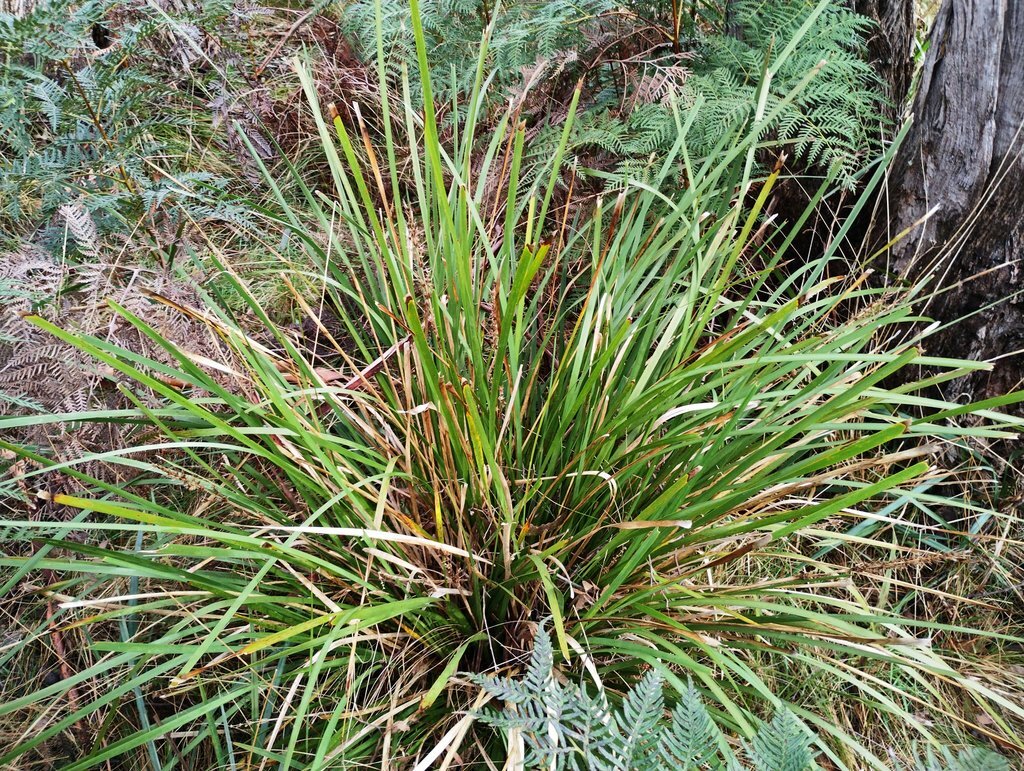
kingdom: Plantae
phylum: Tracheophyta
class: Liliopsida
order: Asparagales
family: Asparagaceae
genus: Lomandra
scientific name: Lomandra longifolia
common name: Longleaf mat-rush
